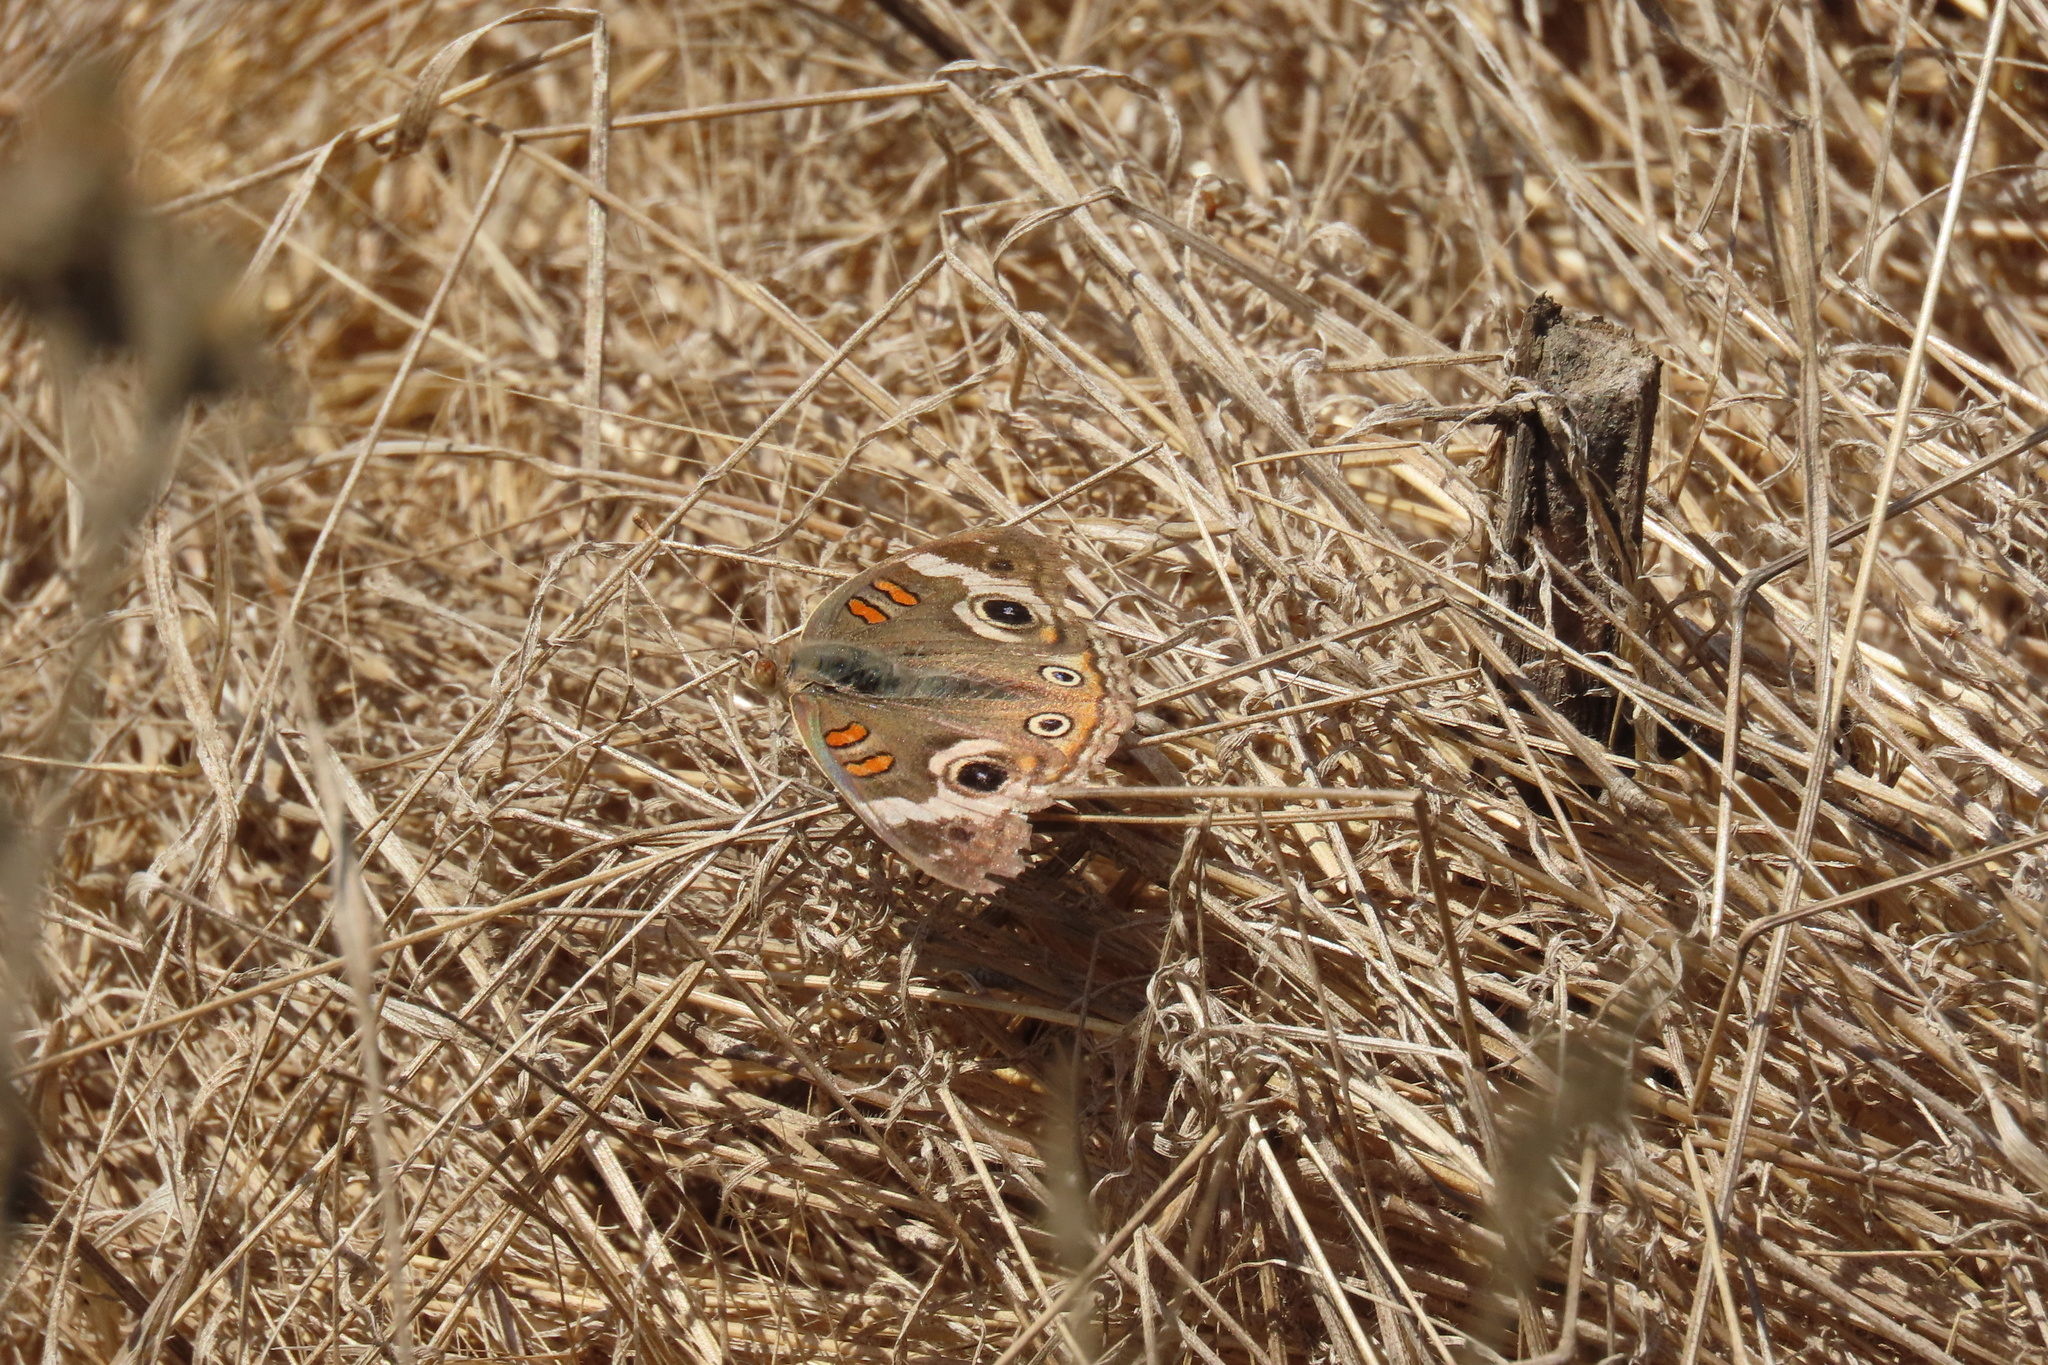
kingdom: Animalia
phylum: Arthropoda
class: Insecta
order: Lepidoptera
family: Nymphalidae
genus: Junonia
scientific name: Junonia grisea
